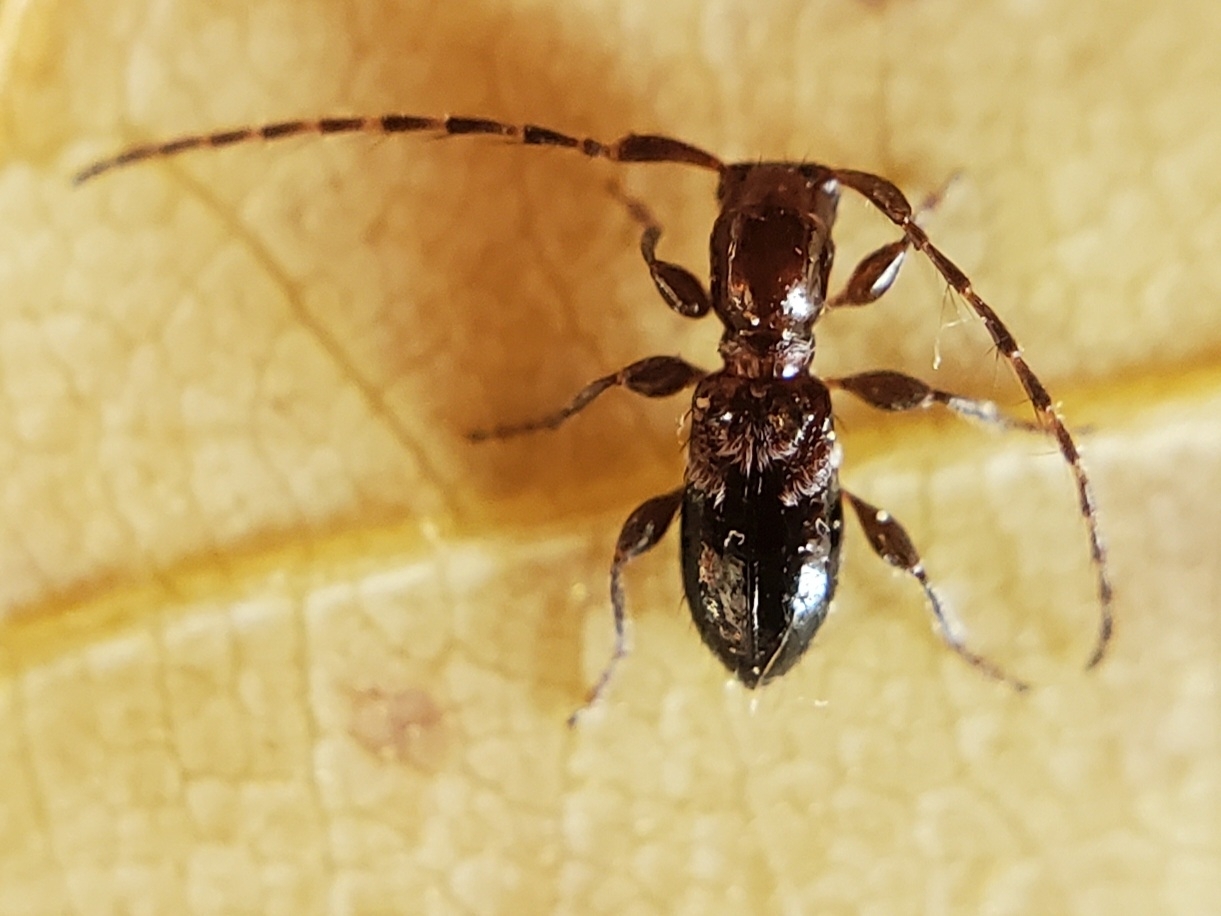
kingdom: Animalia
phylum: Arthropoda
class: Insecta
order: Coleoptera
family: Cerambycidae
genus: Cyrtinus
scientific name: Cyrtinus pygmaeus
